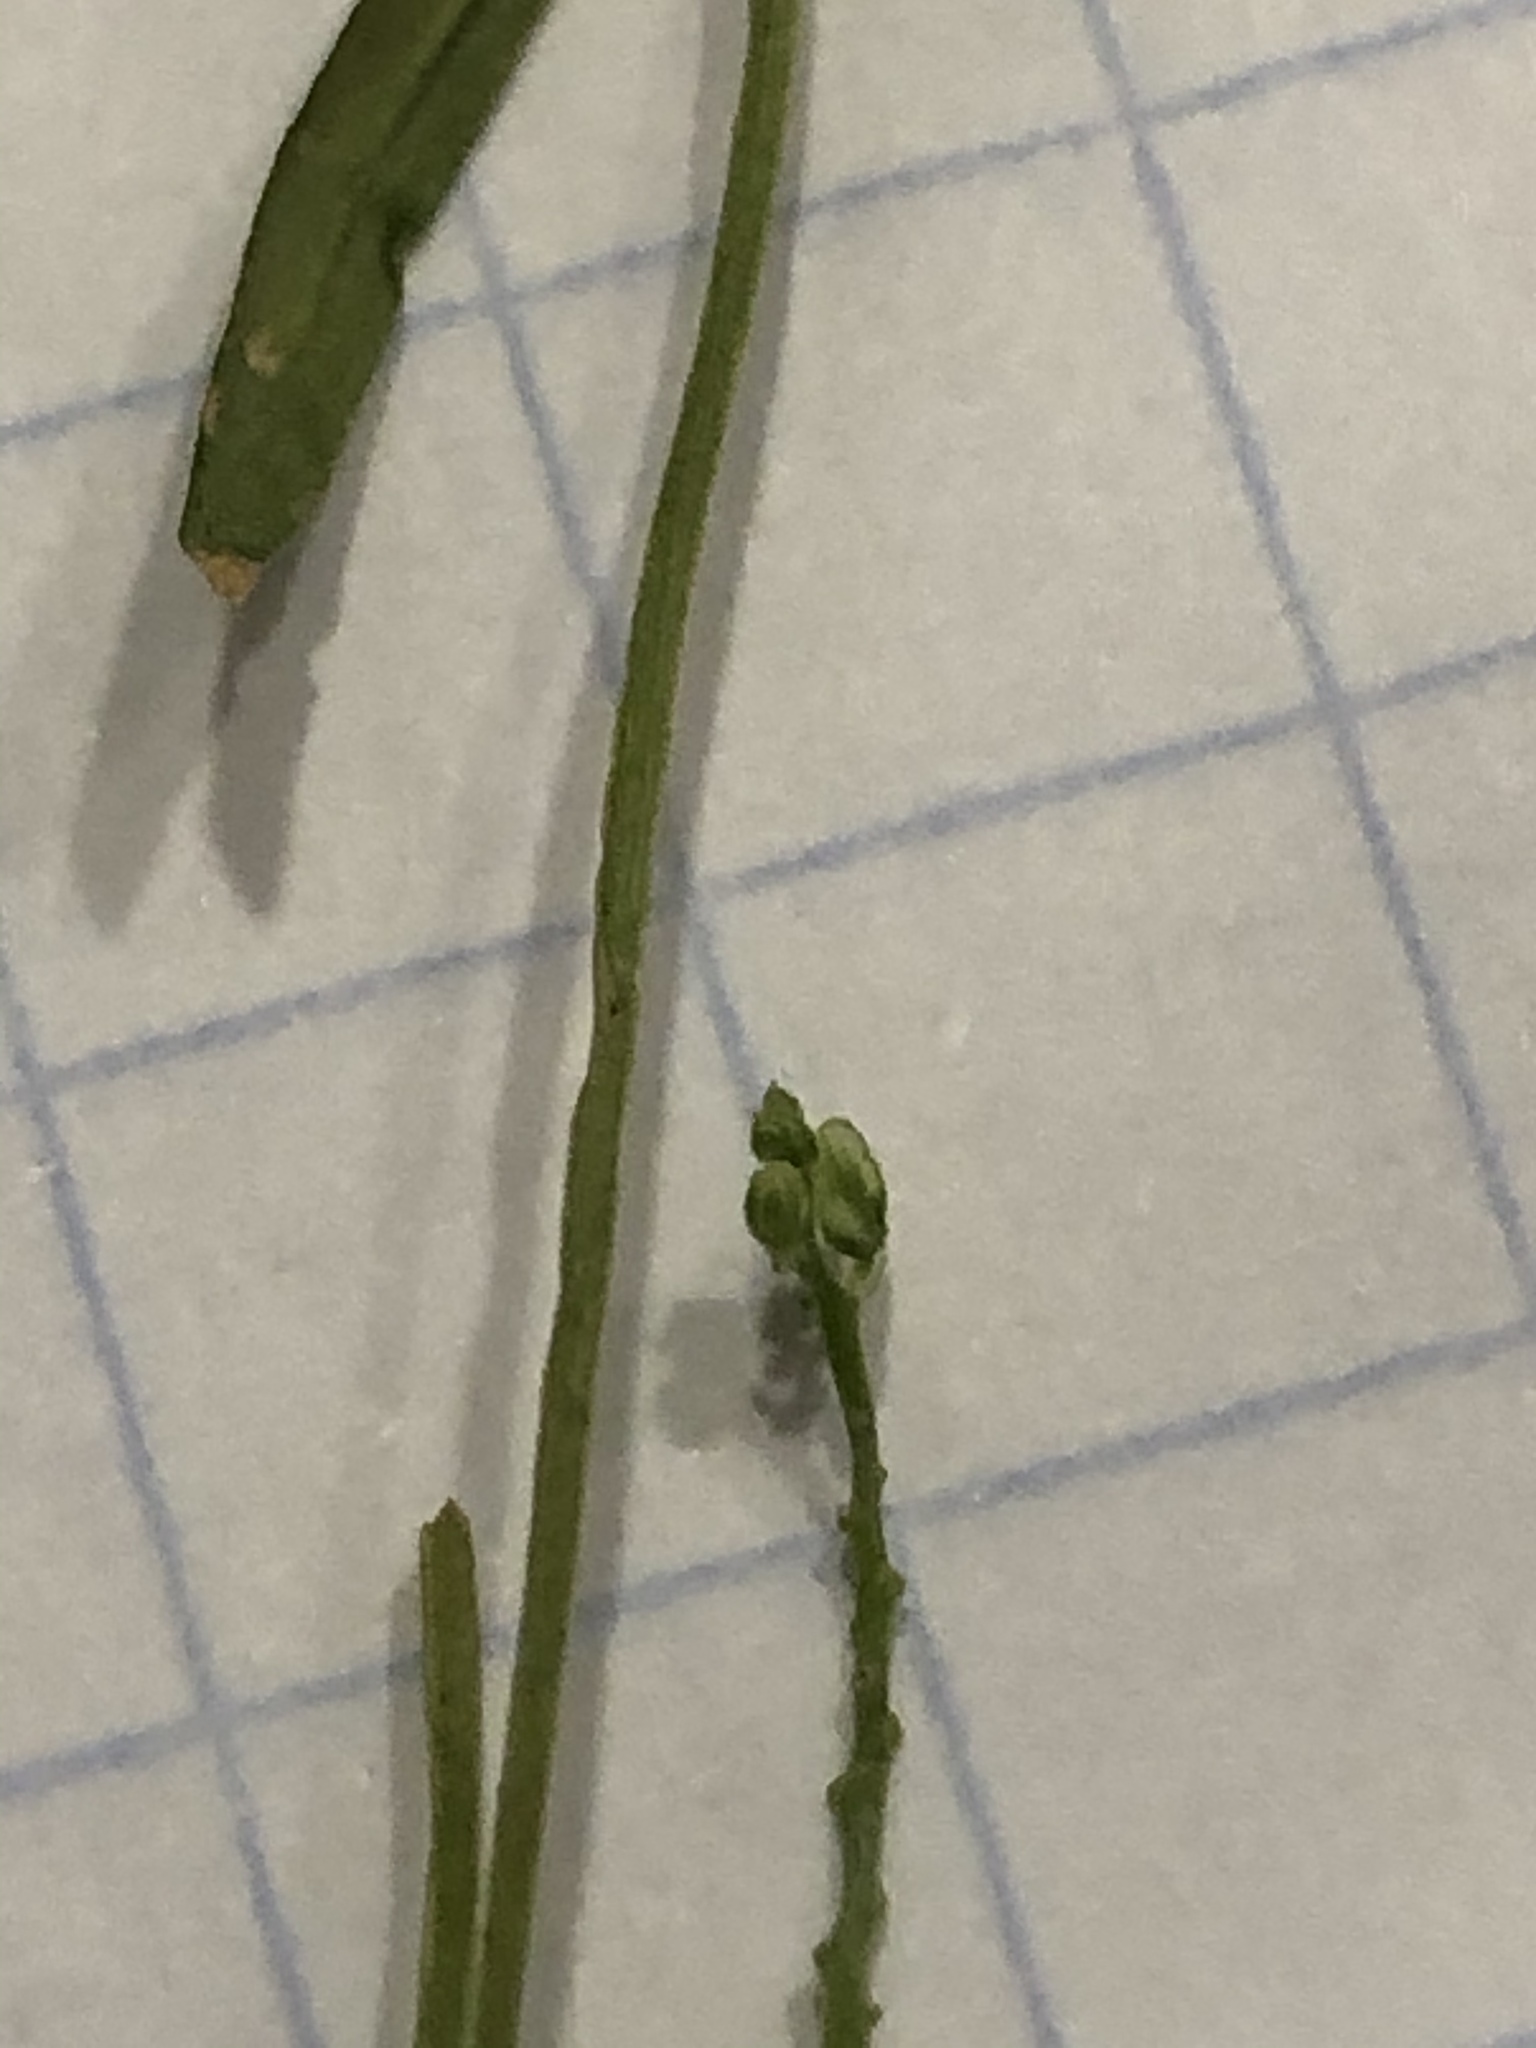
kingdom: Plantae
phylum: Tracheophyta
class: Magnoliopsida
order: Fabales
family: Polygalaceae
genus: Polygala
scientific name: Polygala verticillata
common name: Whorl milkwort
